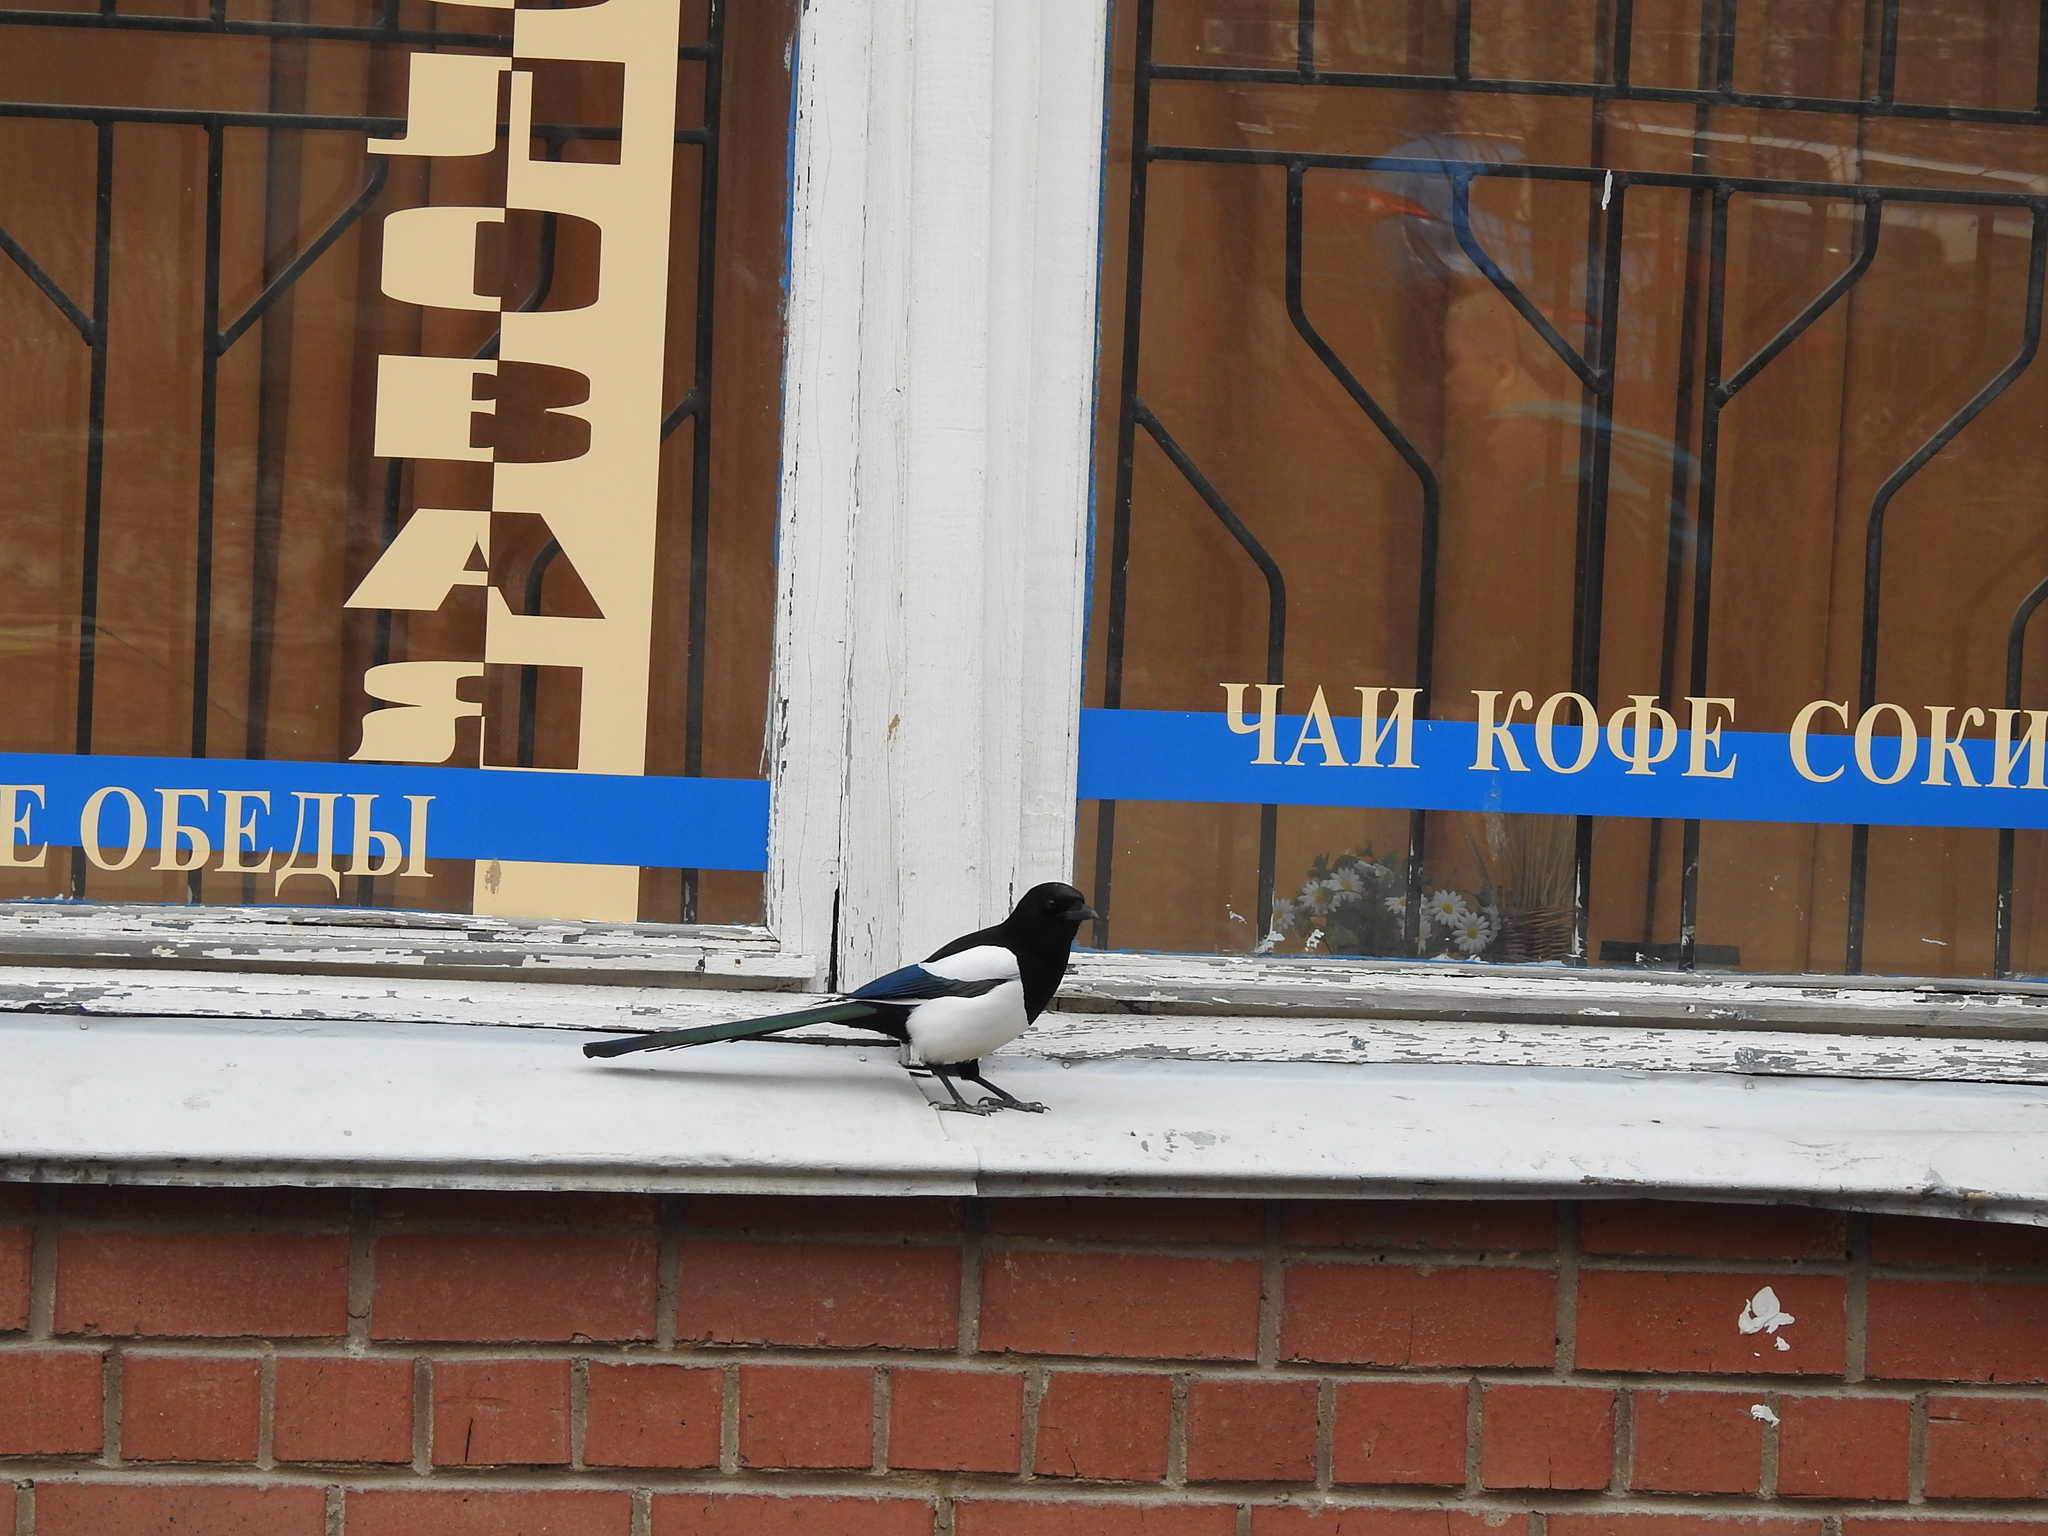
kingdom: Animalia
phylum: Chordata
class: Aves
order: Passeriformes
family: Corvidae
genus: Pica
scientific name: Pica pica
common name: Eurasian magpie
